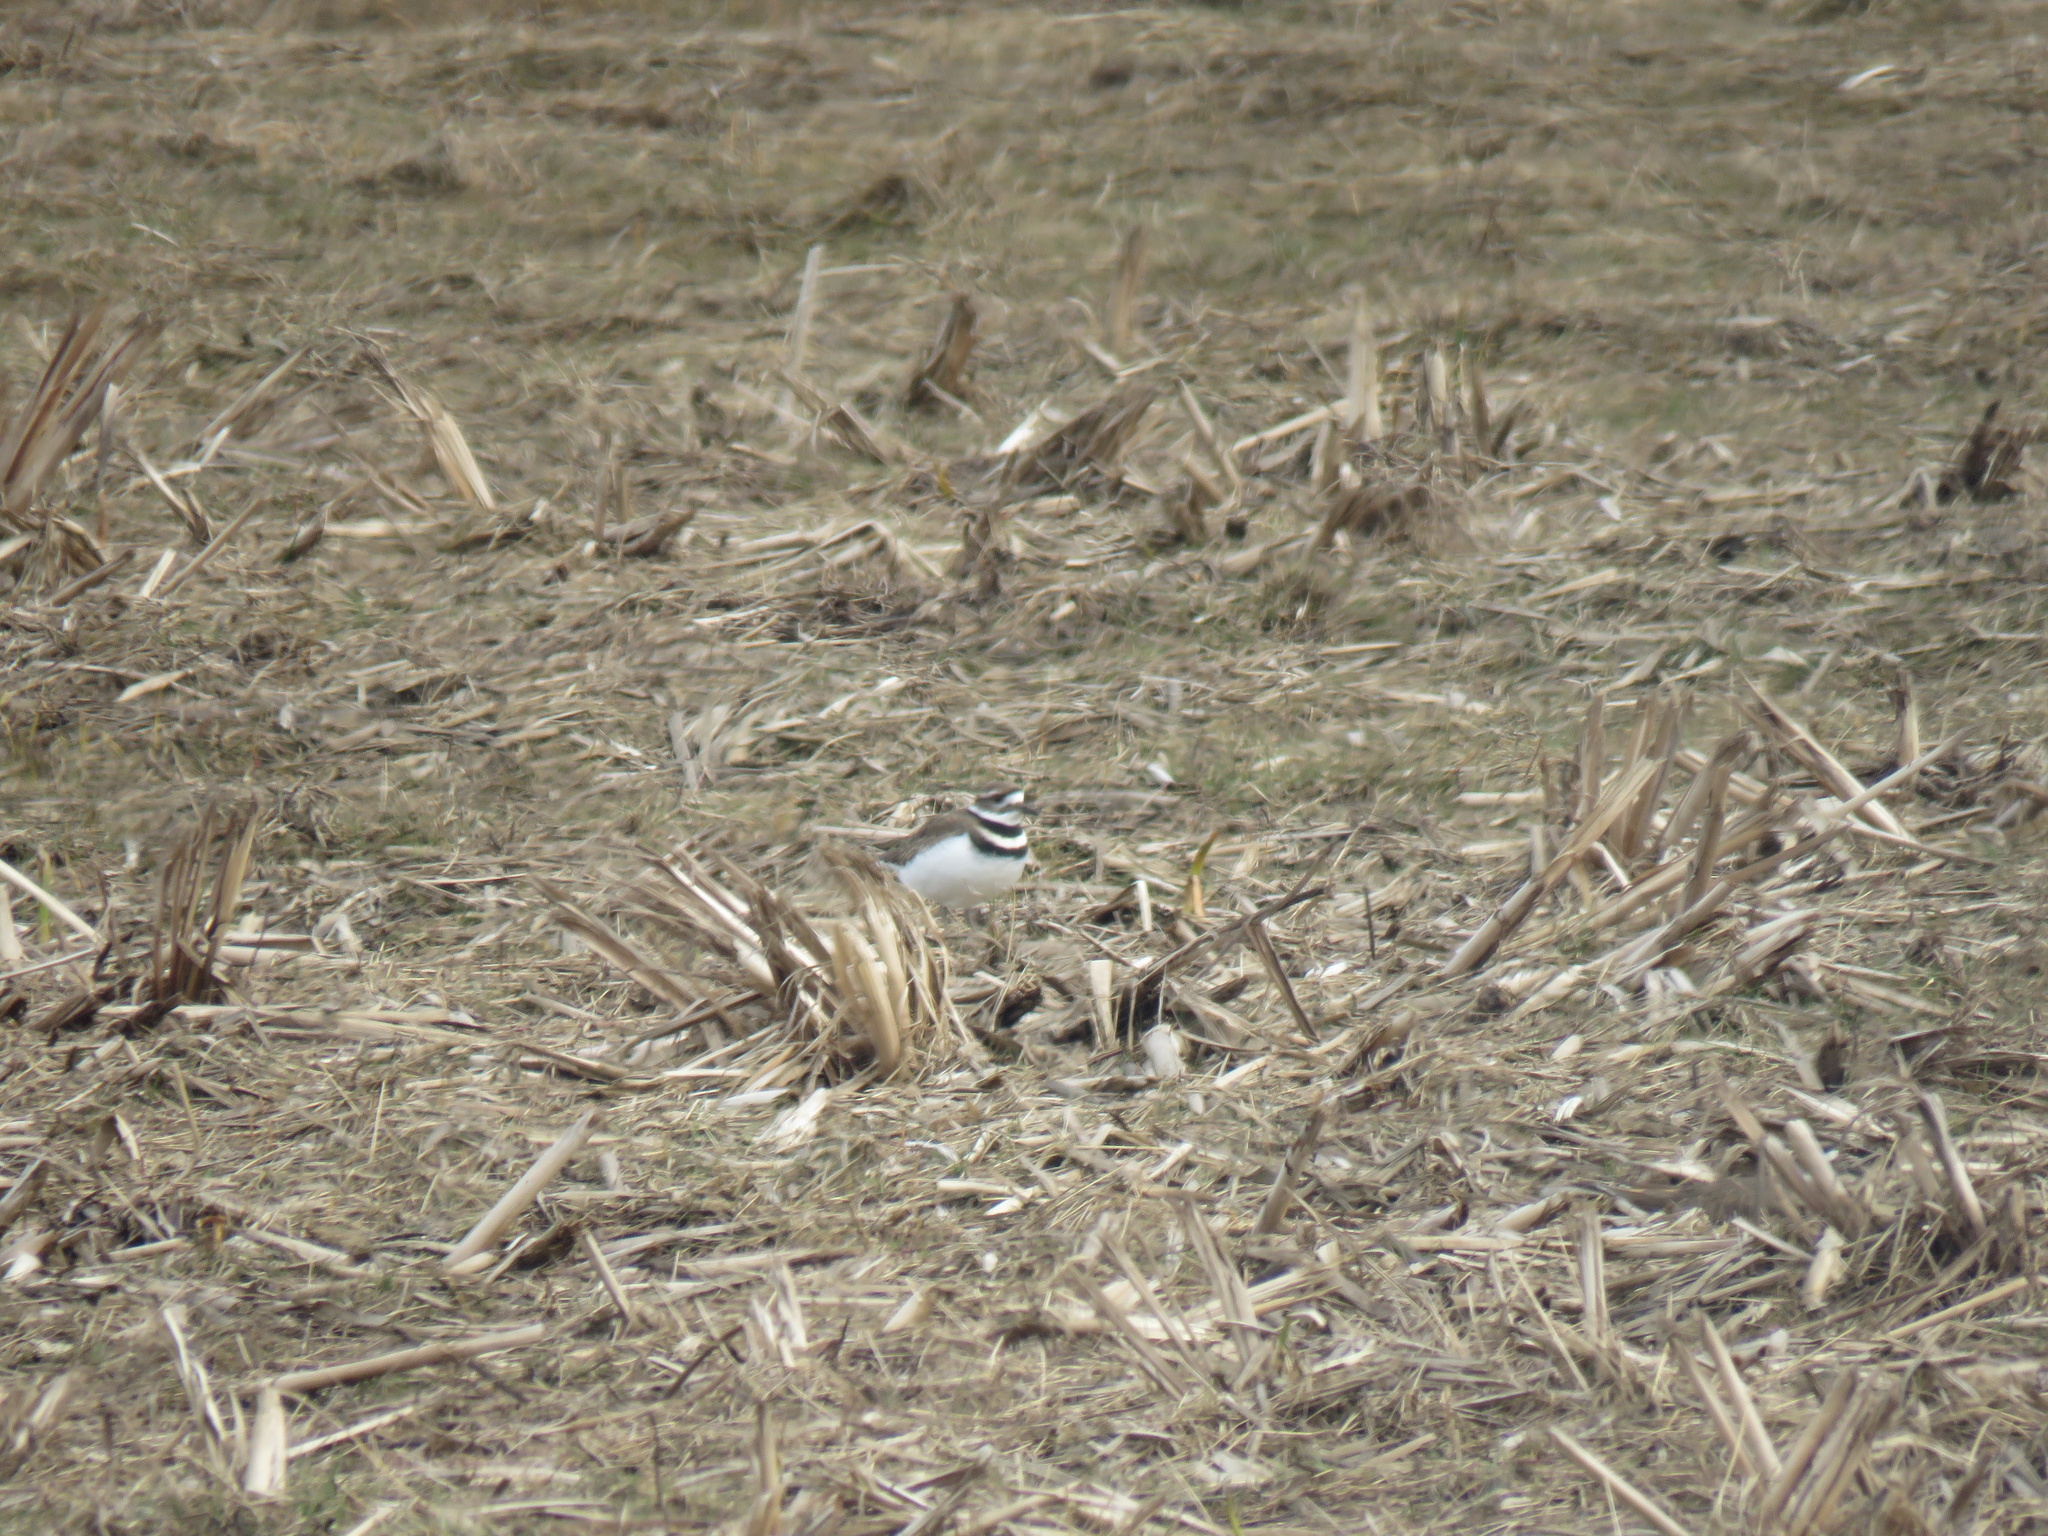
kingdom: Animalia
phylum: Chordata
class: Aves
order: Charadriiformes
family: Charadriidae
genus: Charadrius
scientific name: Charadrius vociferus
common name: Killdeer
